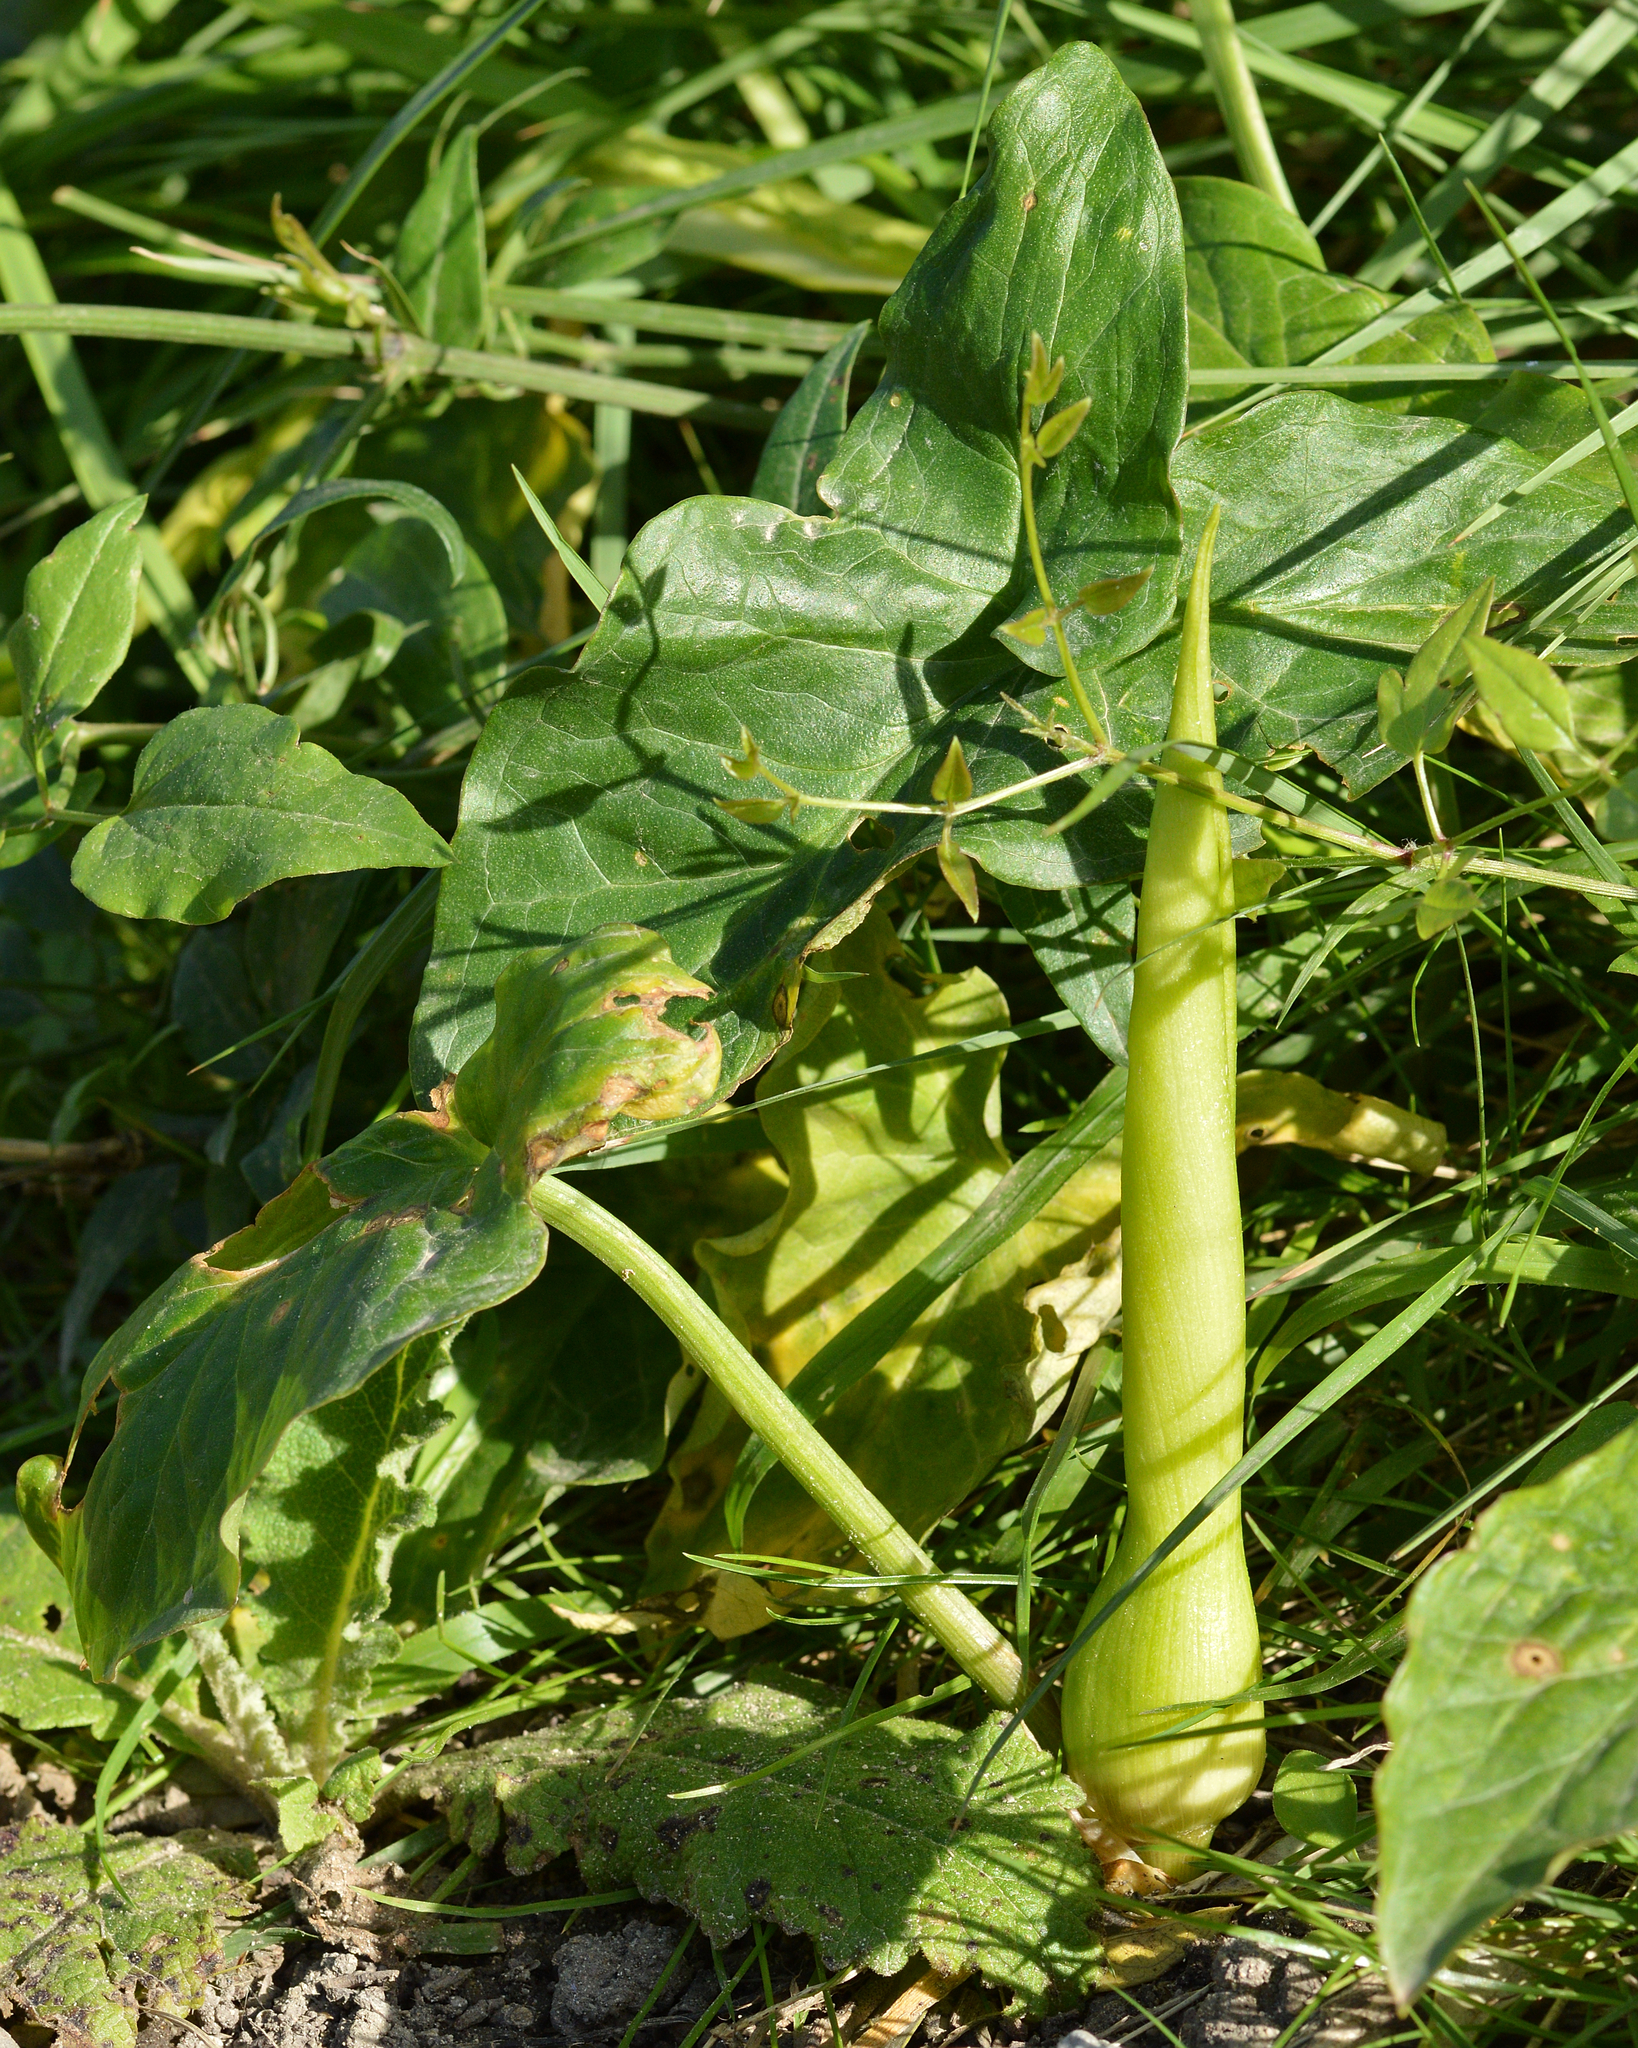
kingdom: Plantae
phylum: Tracheophyta
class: Liliopsida
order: Alismatales
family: Araceae
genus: Arum
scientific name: Arum italicum
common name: Italian lords-and-ladies
